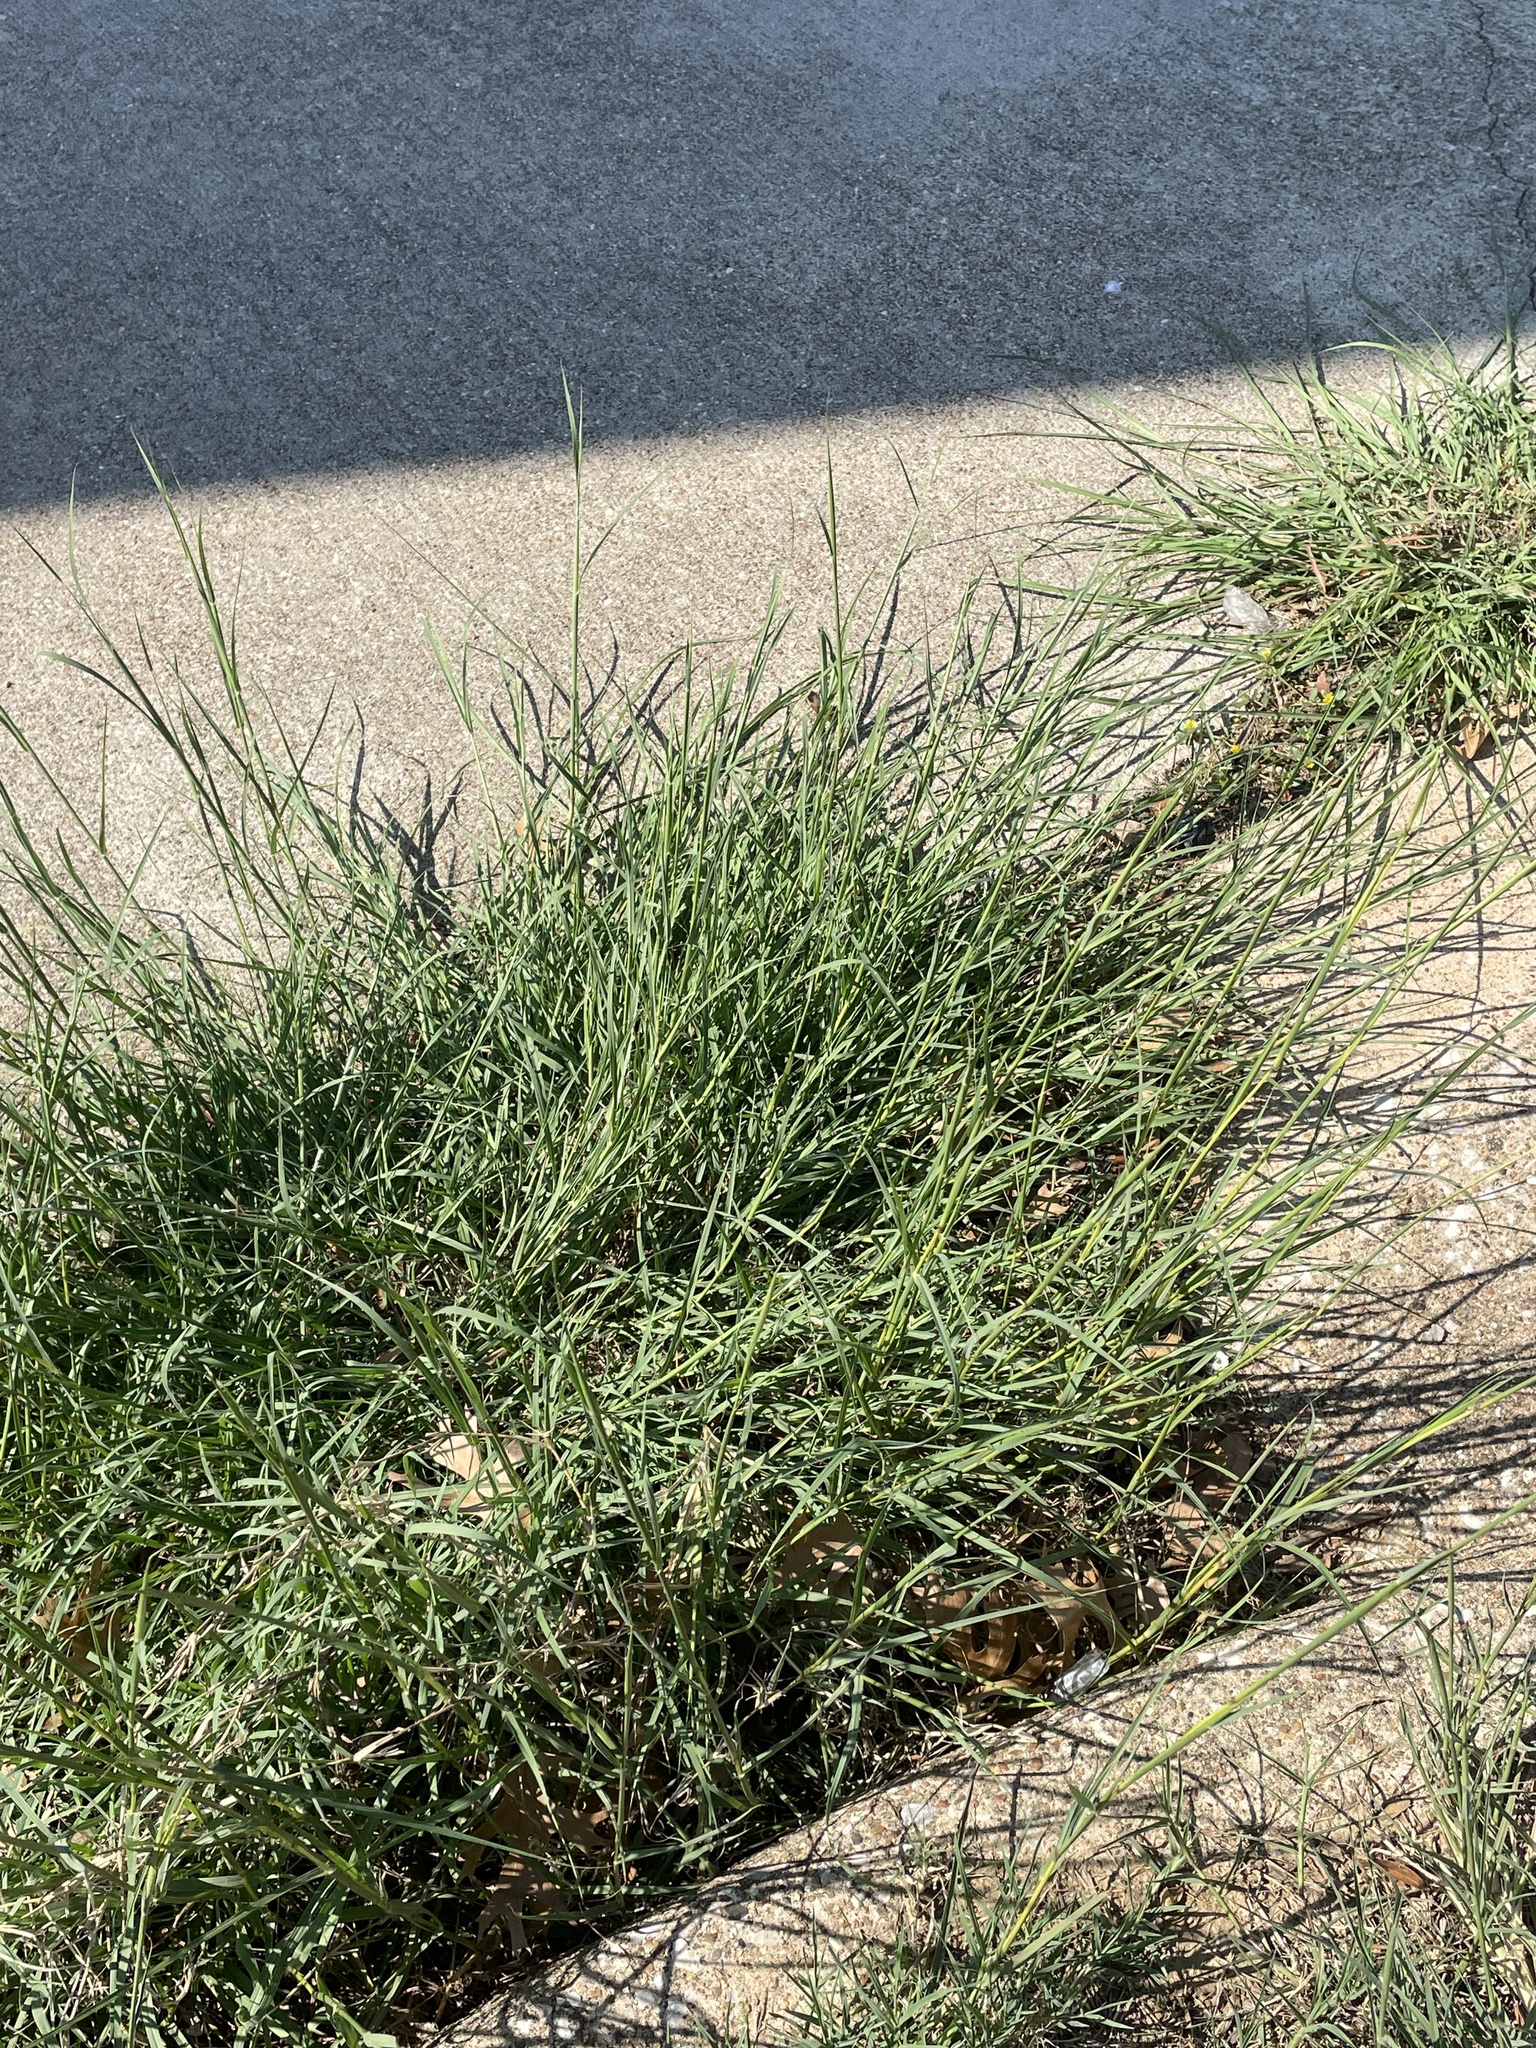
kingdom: Plantae
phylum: Tracheophyta
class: Liliopsida
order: Poales
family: Poaceae
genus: Bothriochloa
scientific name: Bothriochloa ischaemum
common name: Yellow bluestem
